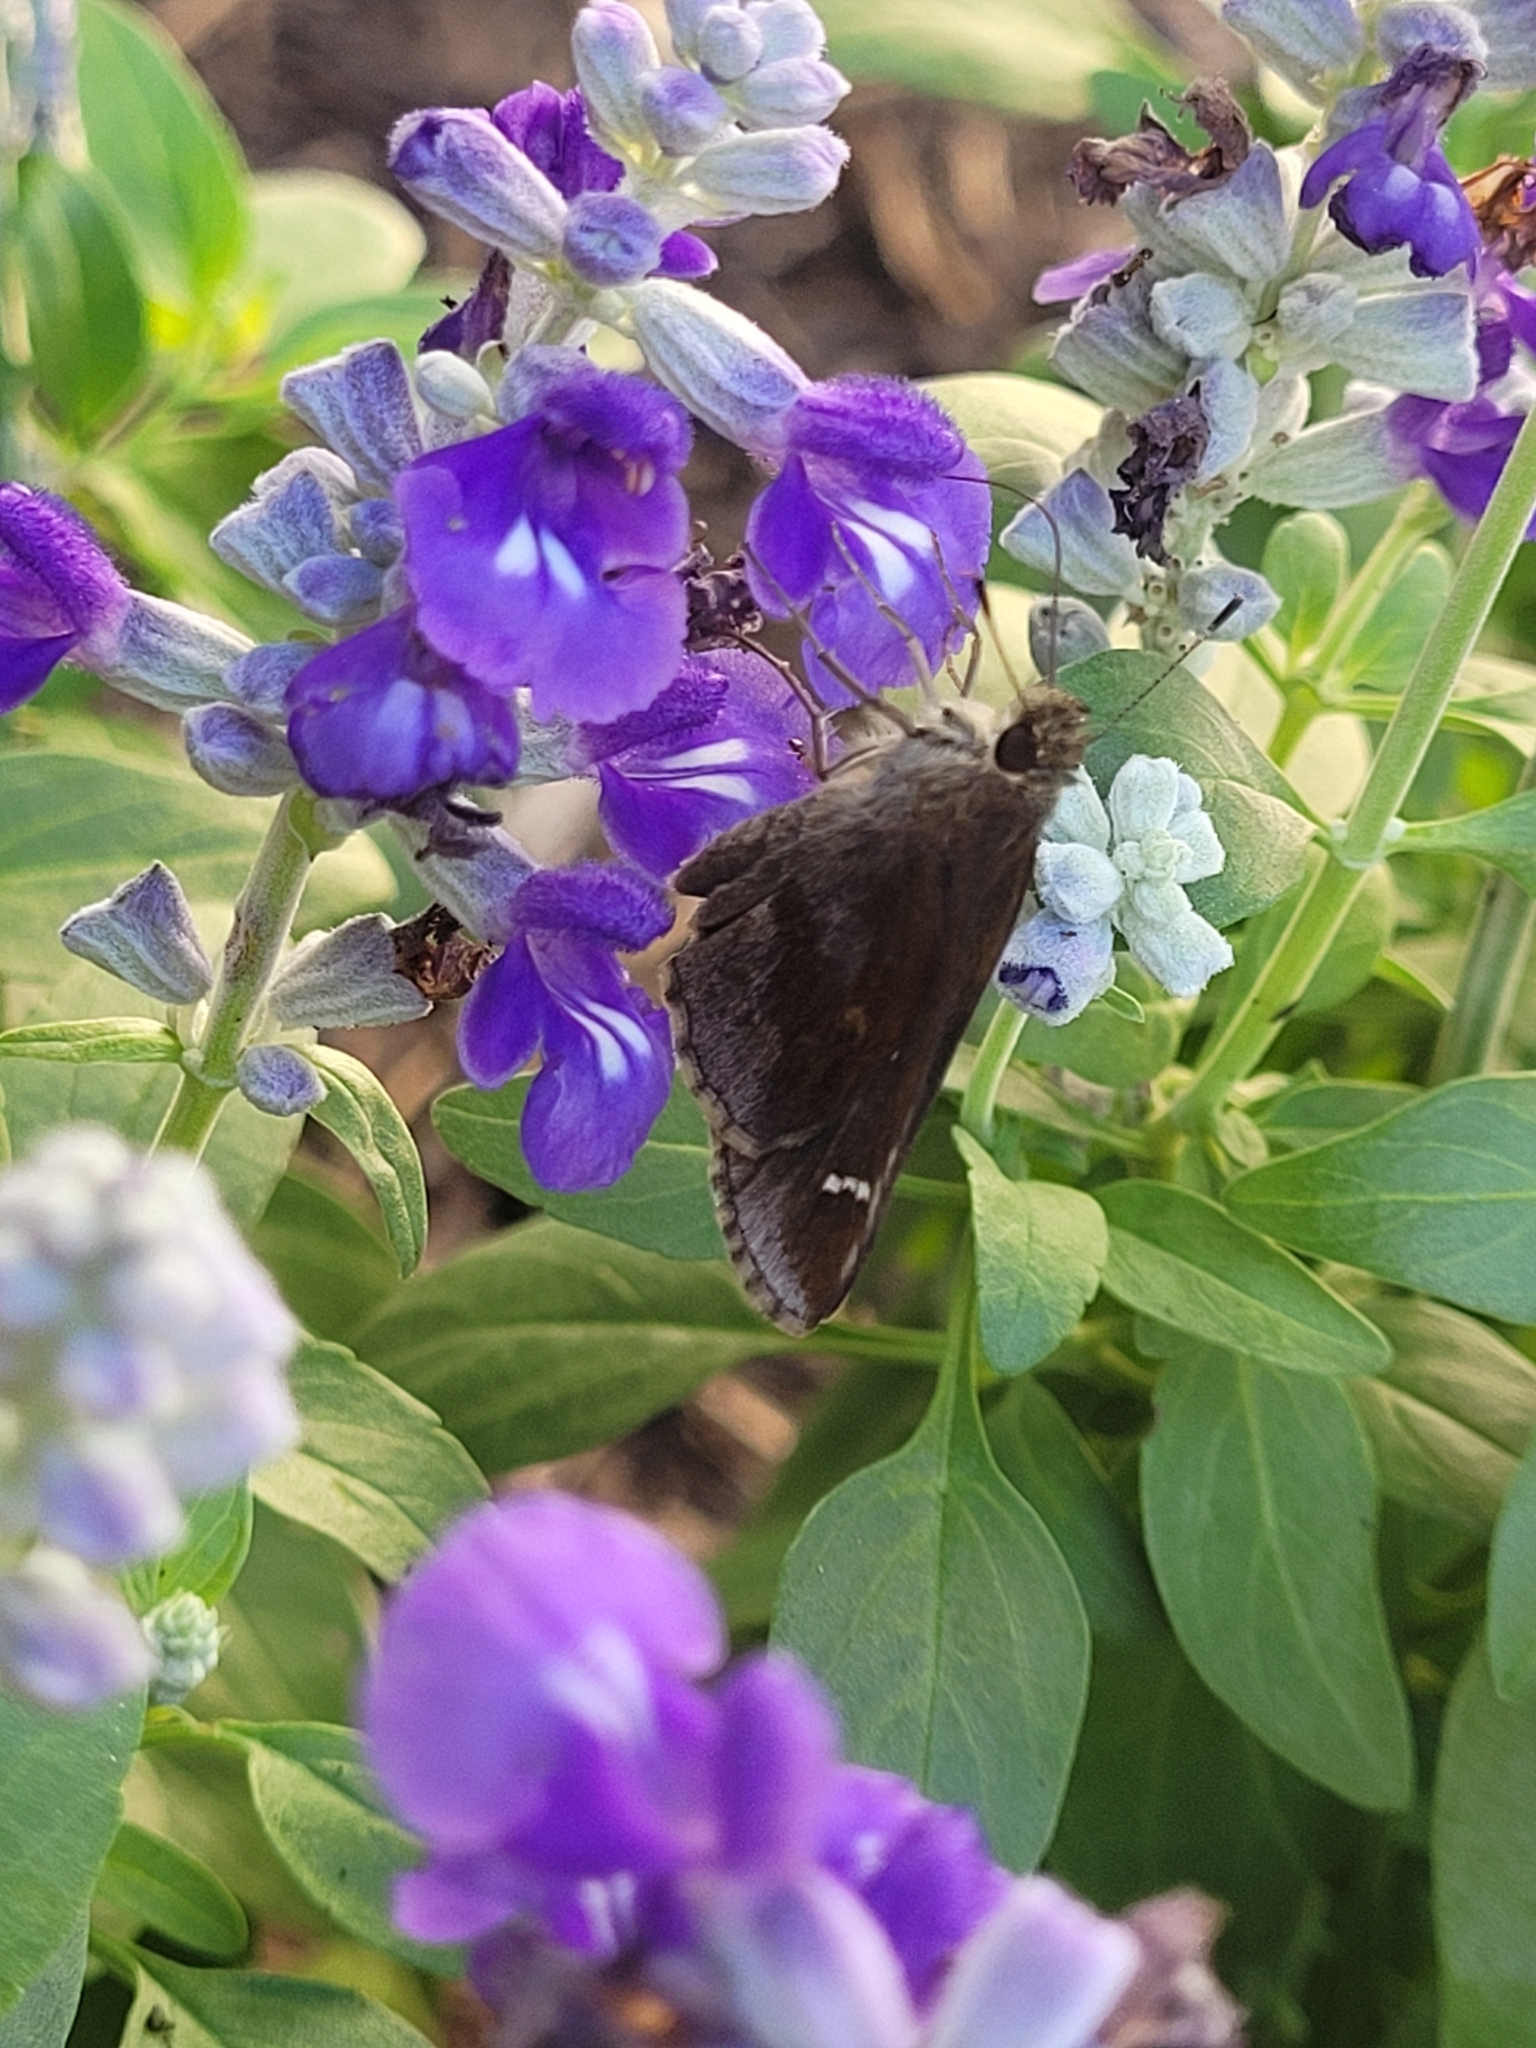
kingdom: Animalia
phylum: Arthropoda
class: Insecta
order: Lepidoptera
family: Hesperiidae
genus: Lerema
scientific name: Lerema accius
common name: Clouded skipper
